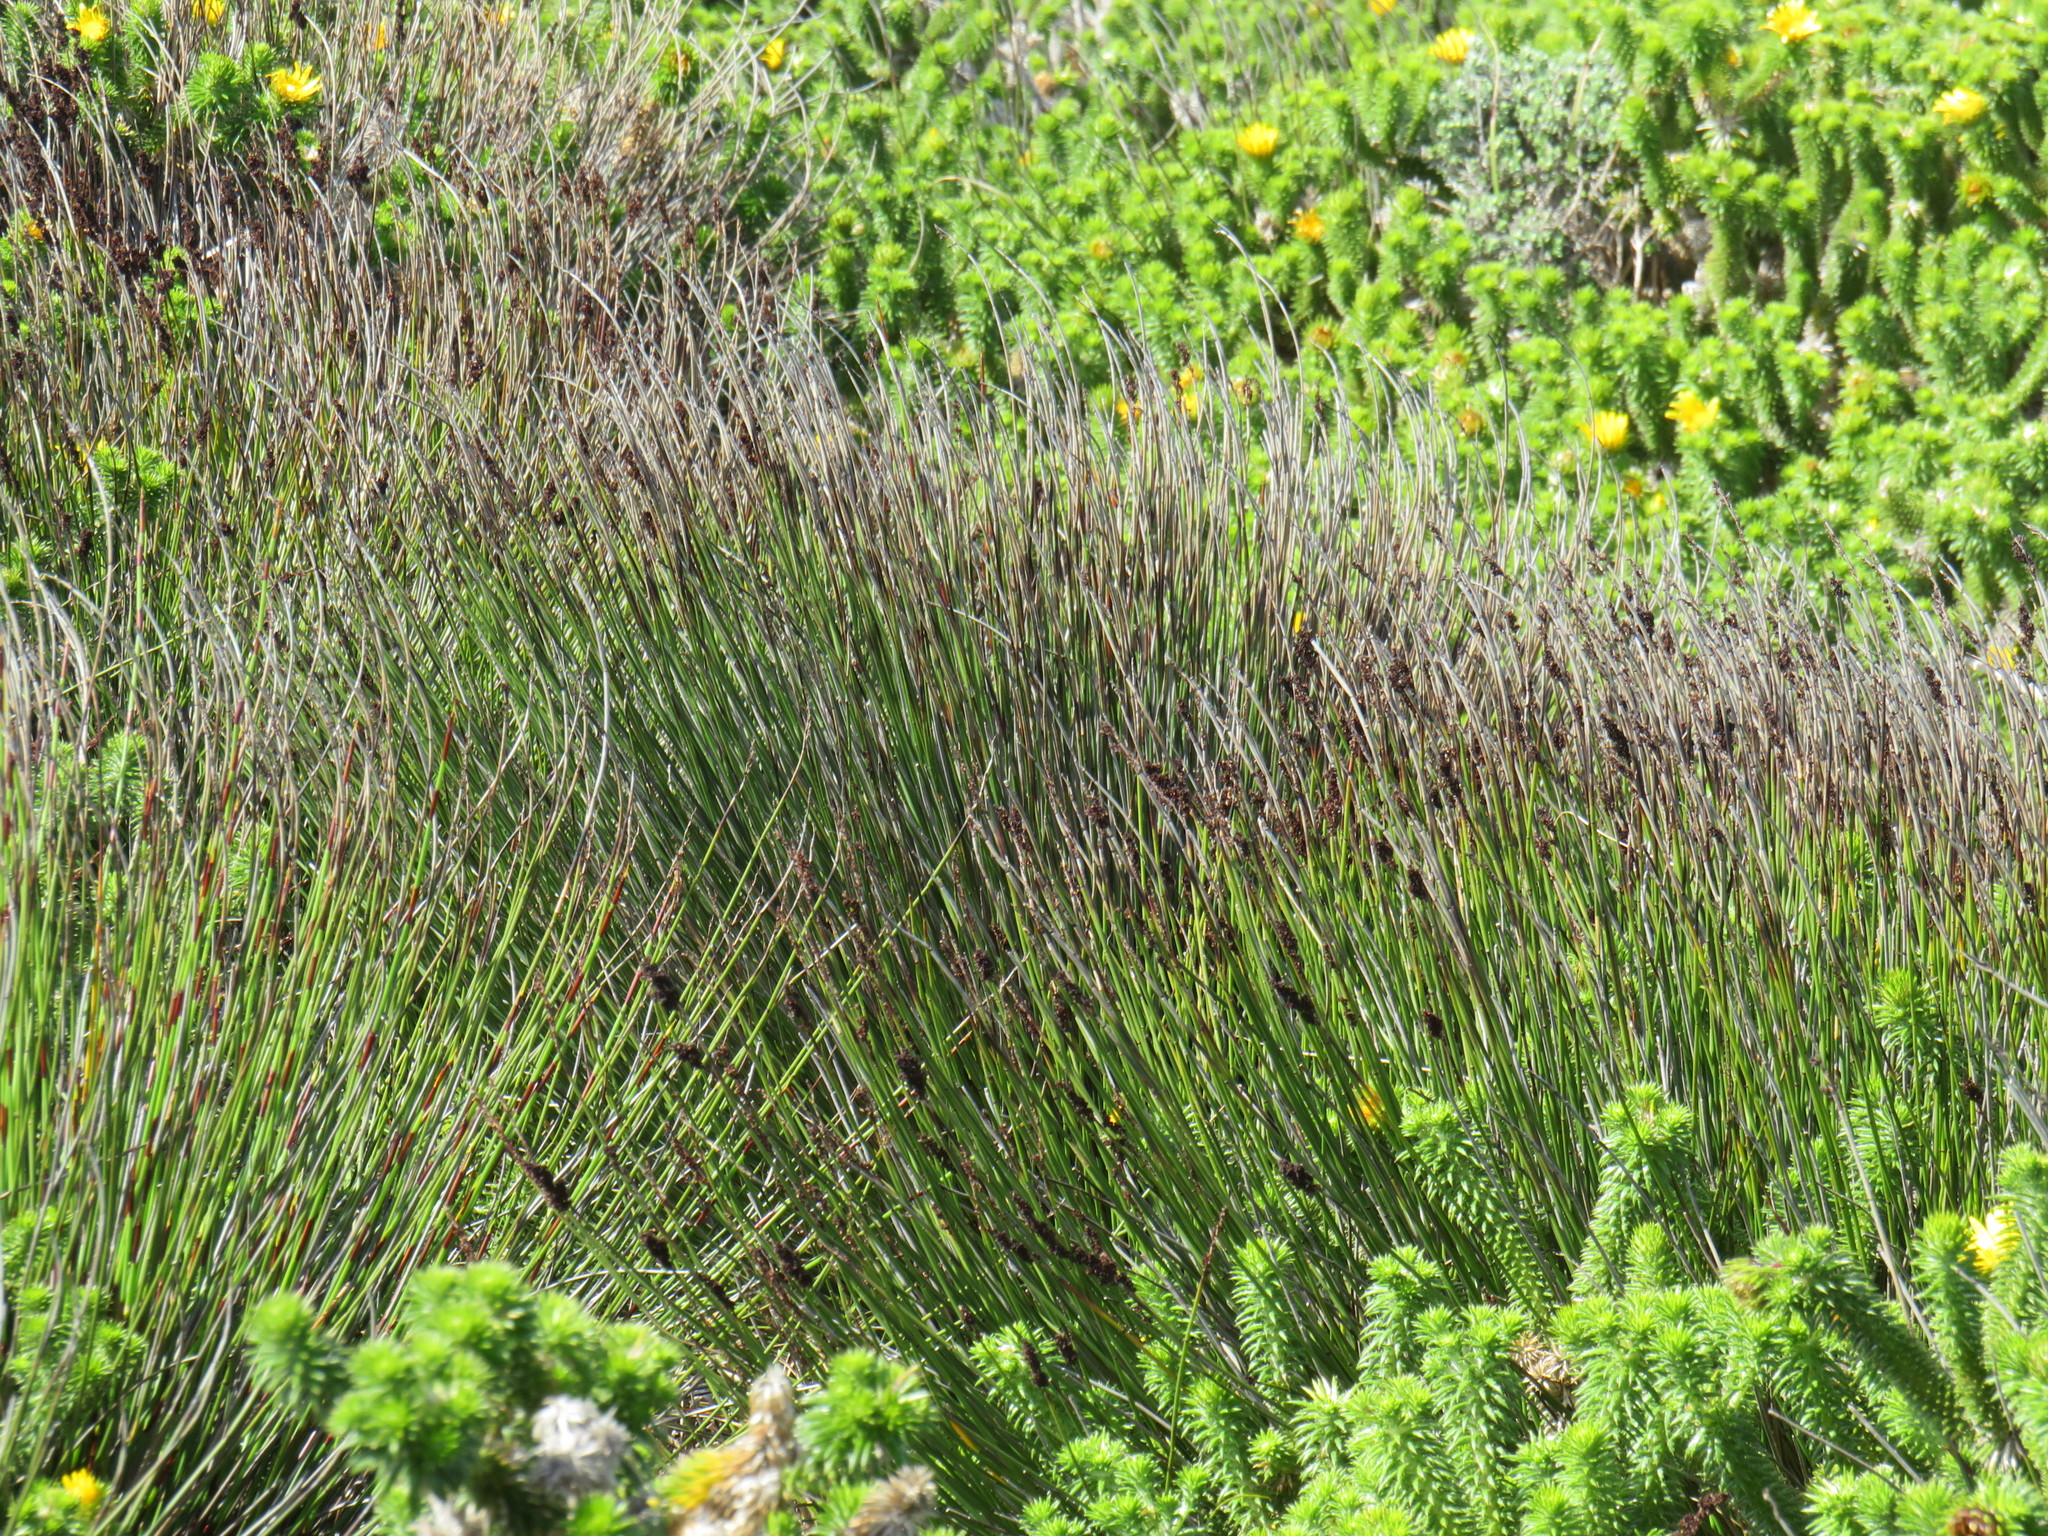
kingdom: Plantae
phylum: Tracheophyta
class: Liliopsida
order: Poales
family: Restionaceae
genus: Elegia
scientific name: Elegia tectorum
